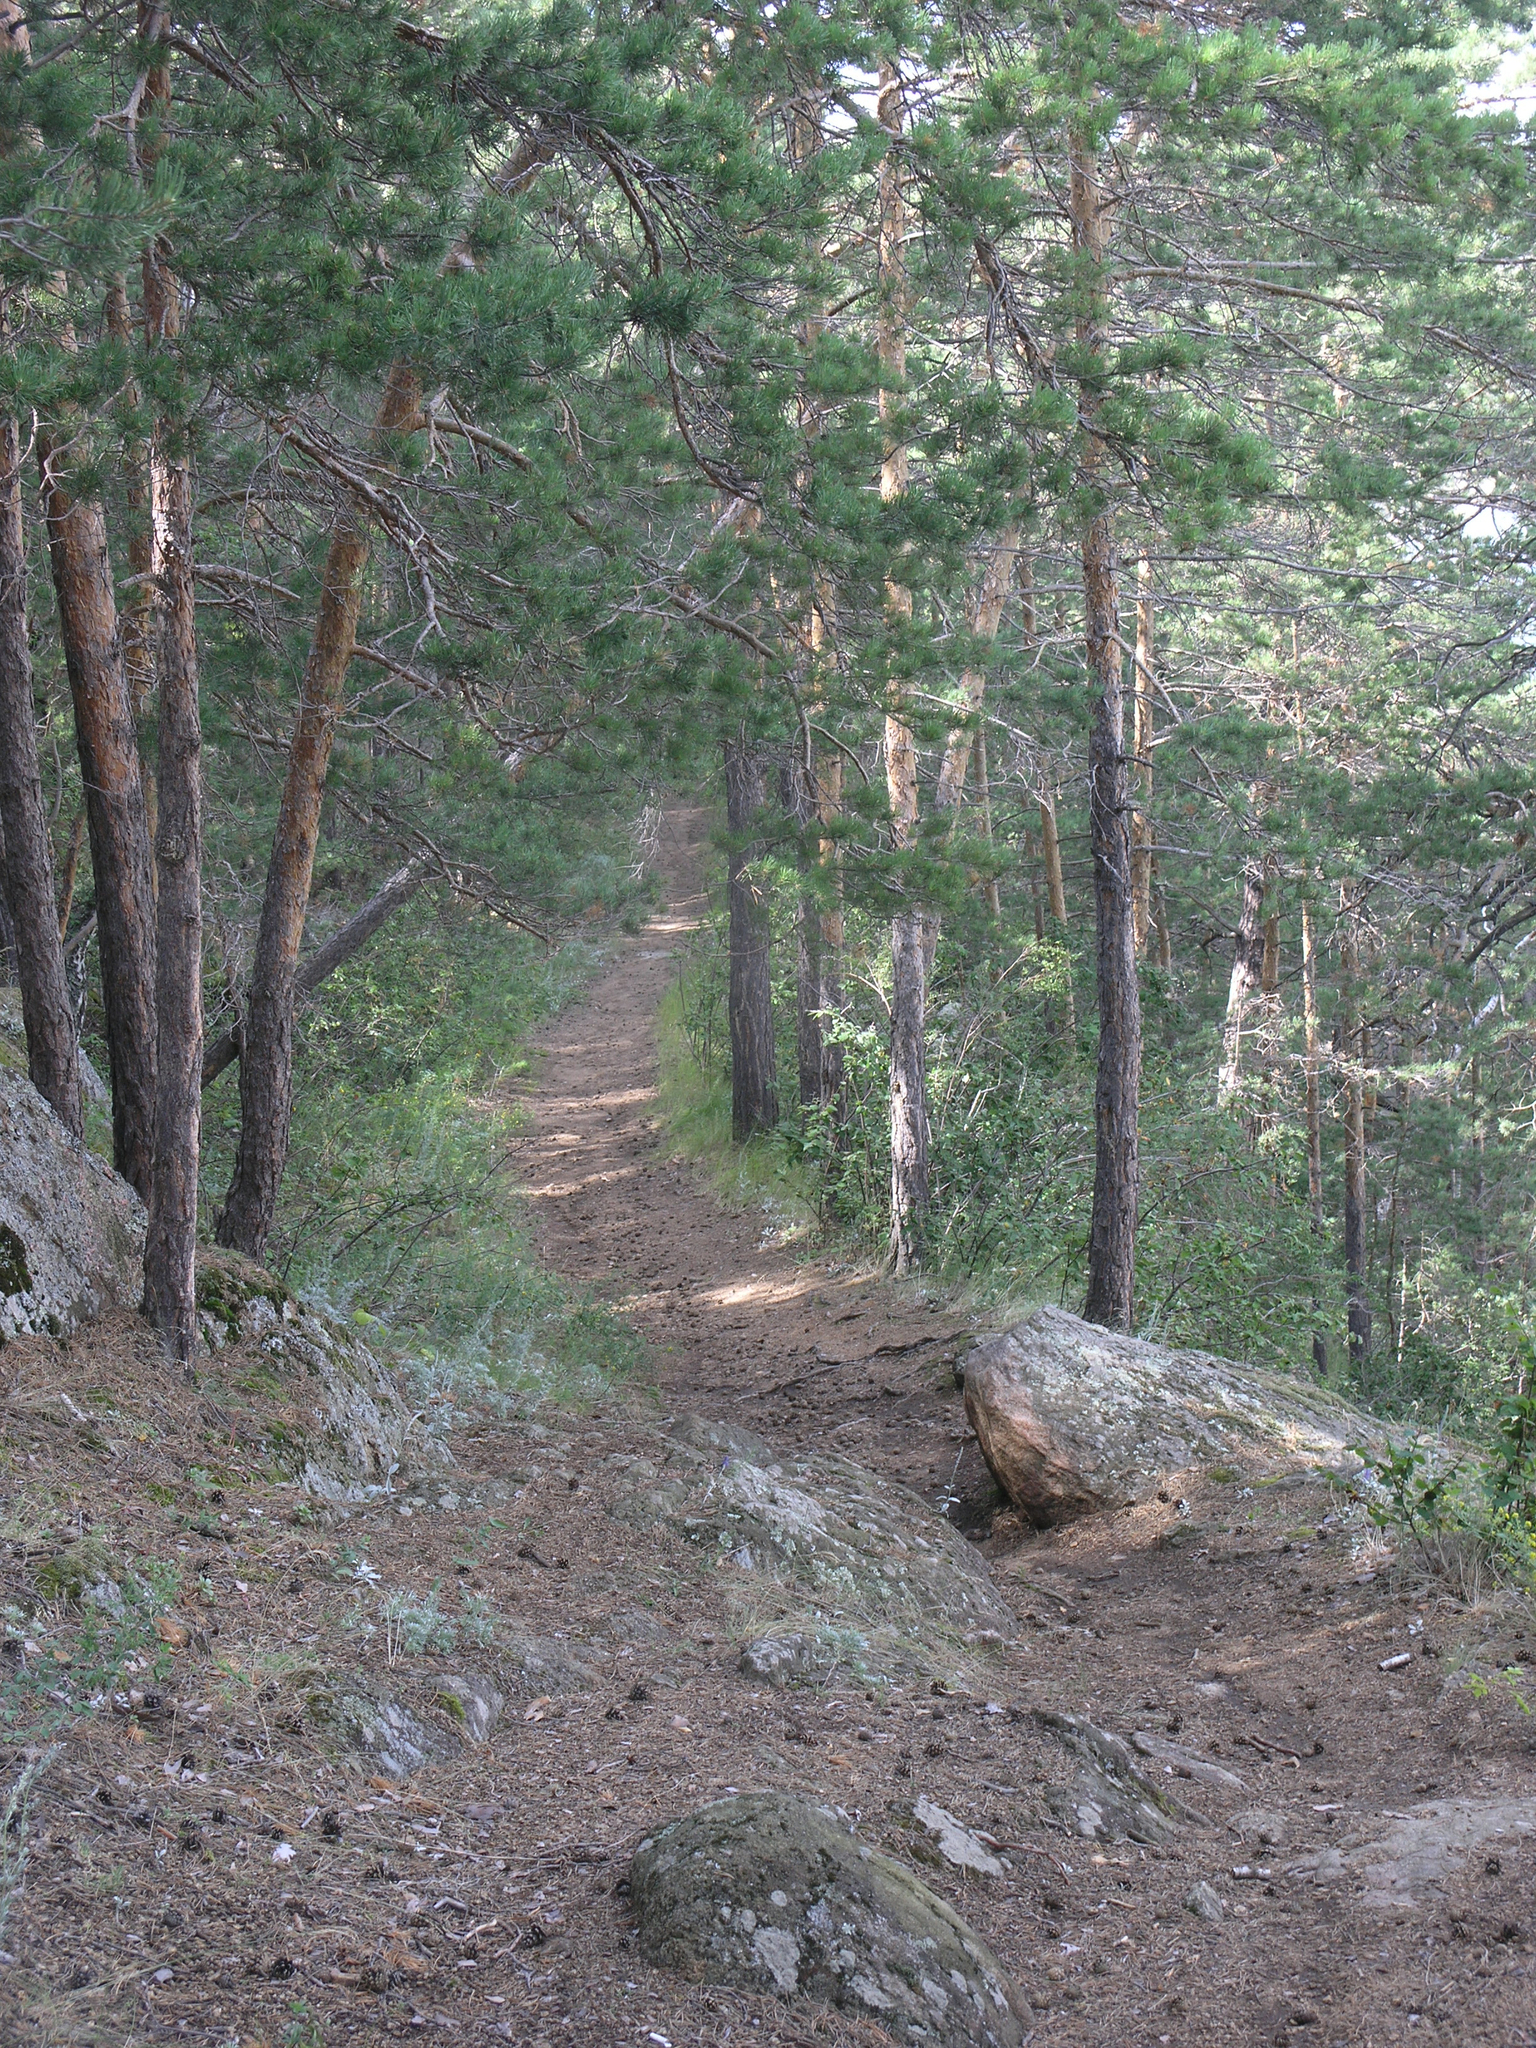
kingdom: Plantae
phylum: Tracheophyta
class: Pinopsida
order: Pinales
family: Pinaceae
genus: Pinus
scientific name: Pinus sylvestris
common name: Scots pine
